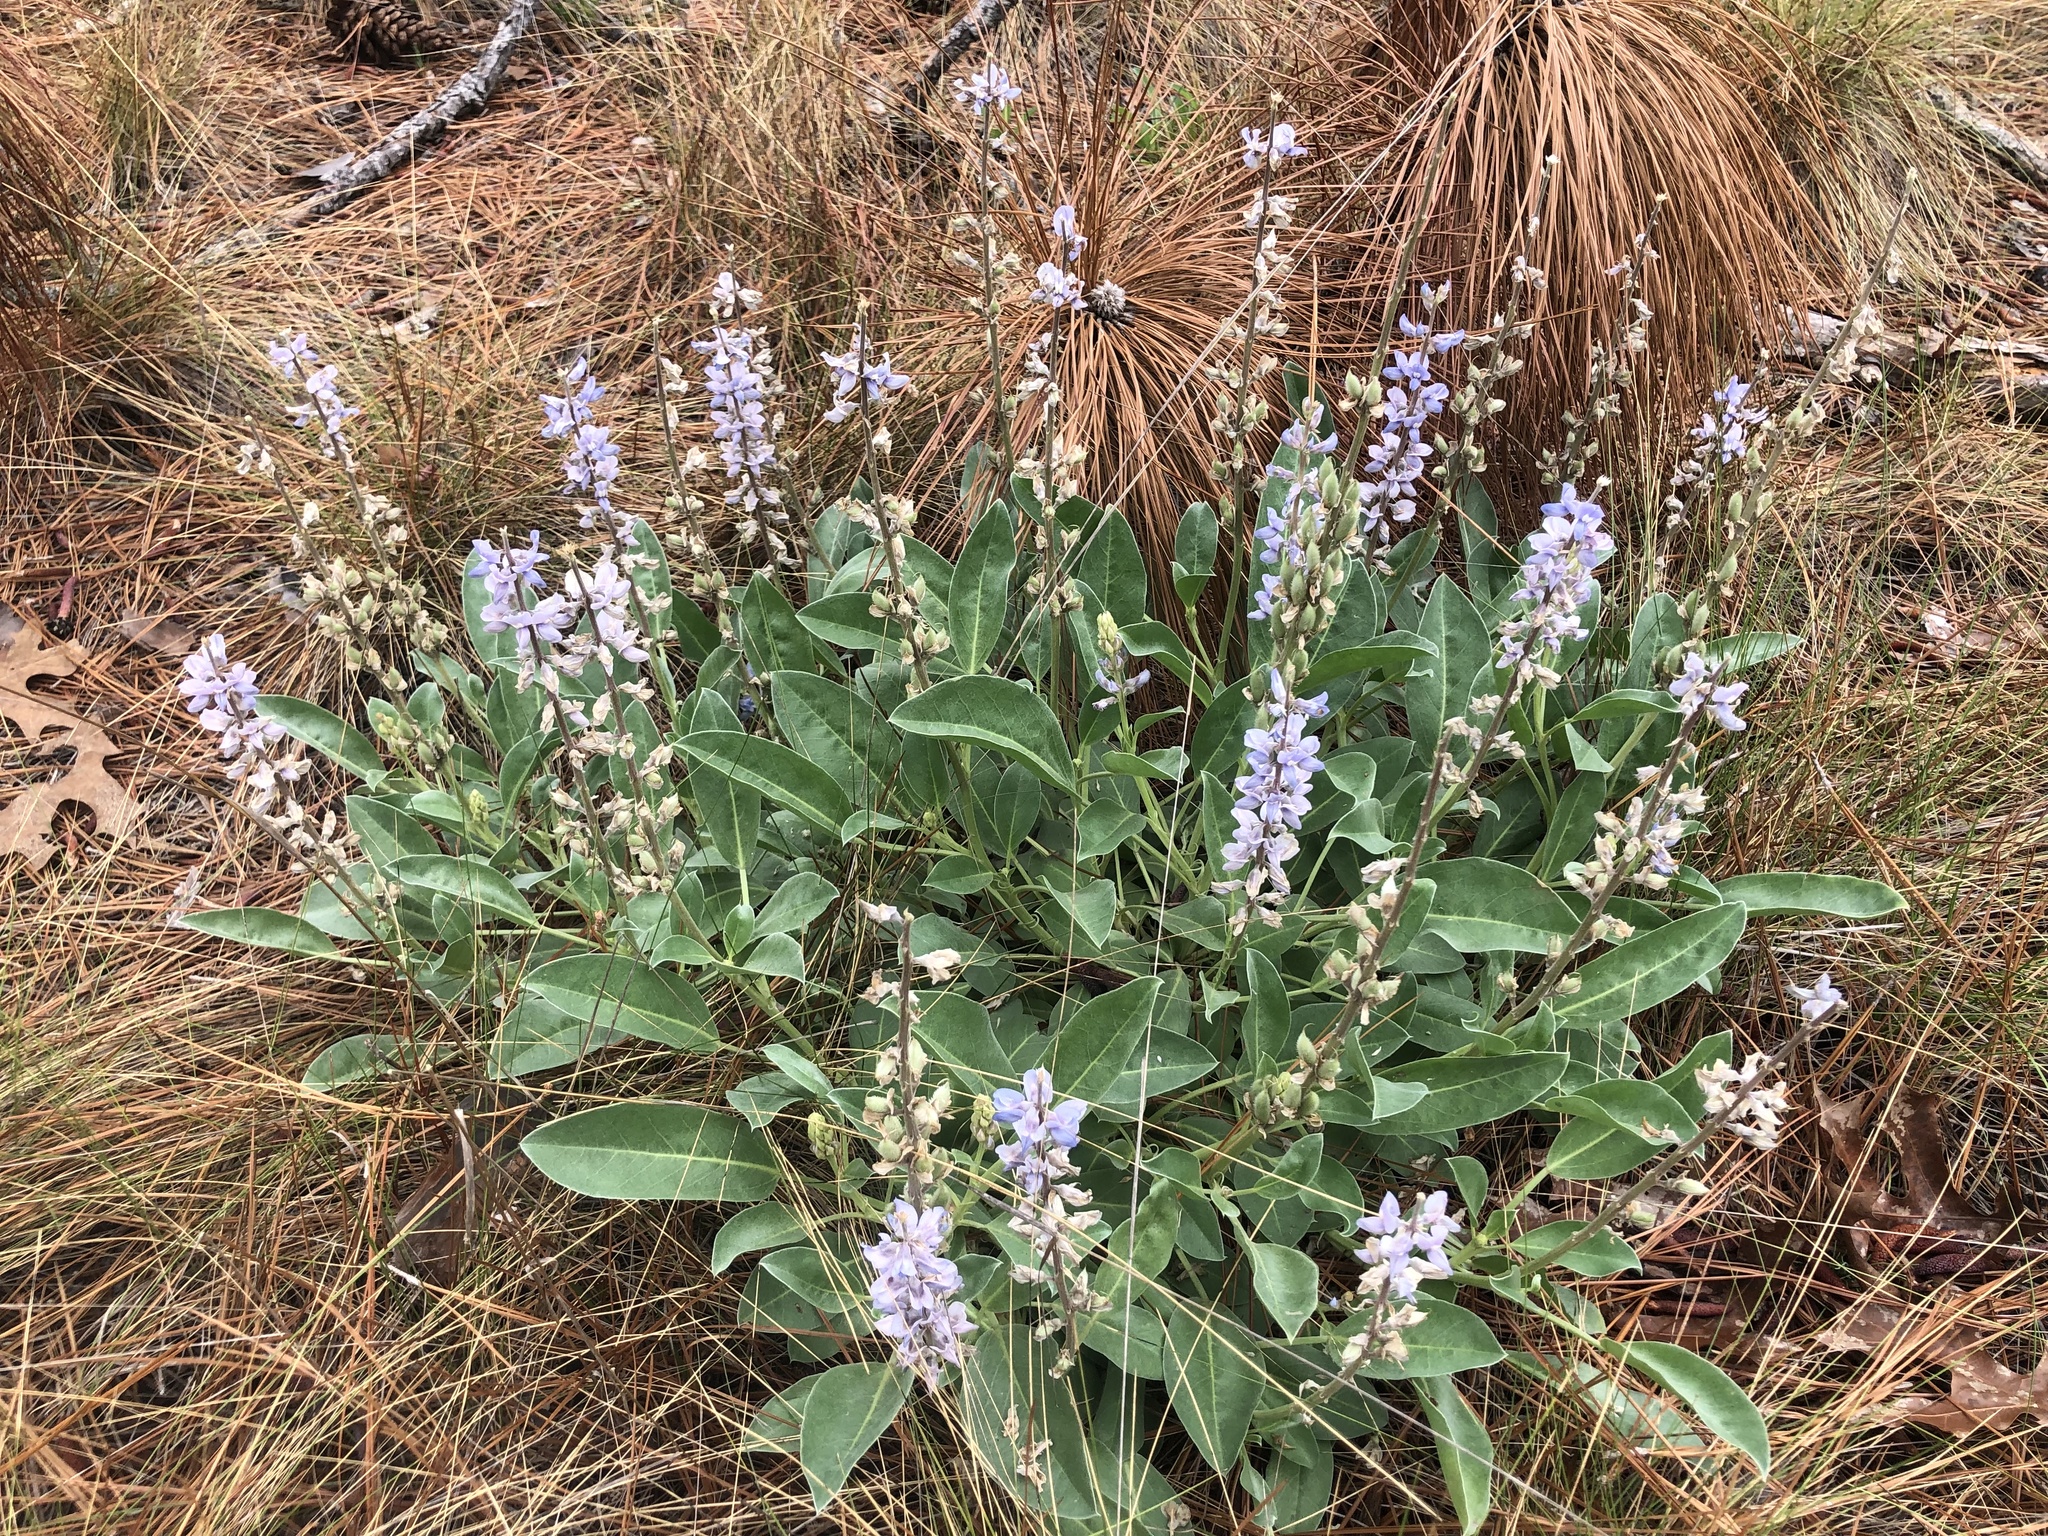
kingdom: Plantae
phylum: Tracheophyta
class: Magnoliopsida
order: Fabales
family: Fabaceae
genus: Lupinus
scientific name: Lupinus diffusus
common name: Oak ridge lupine
